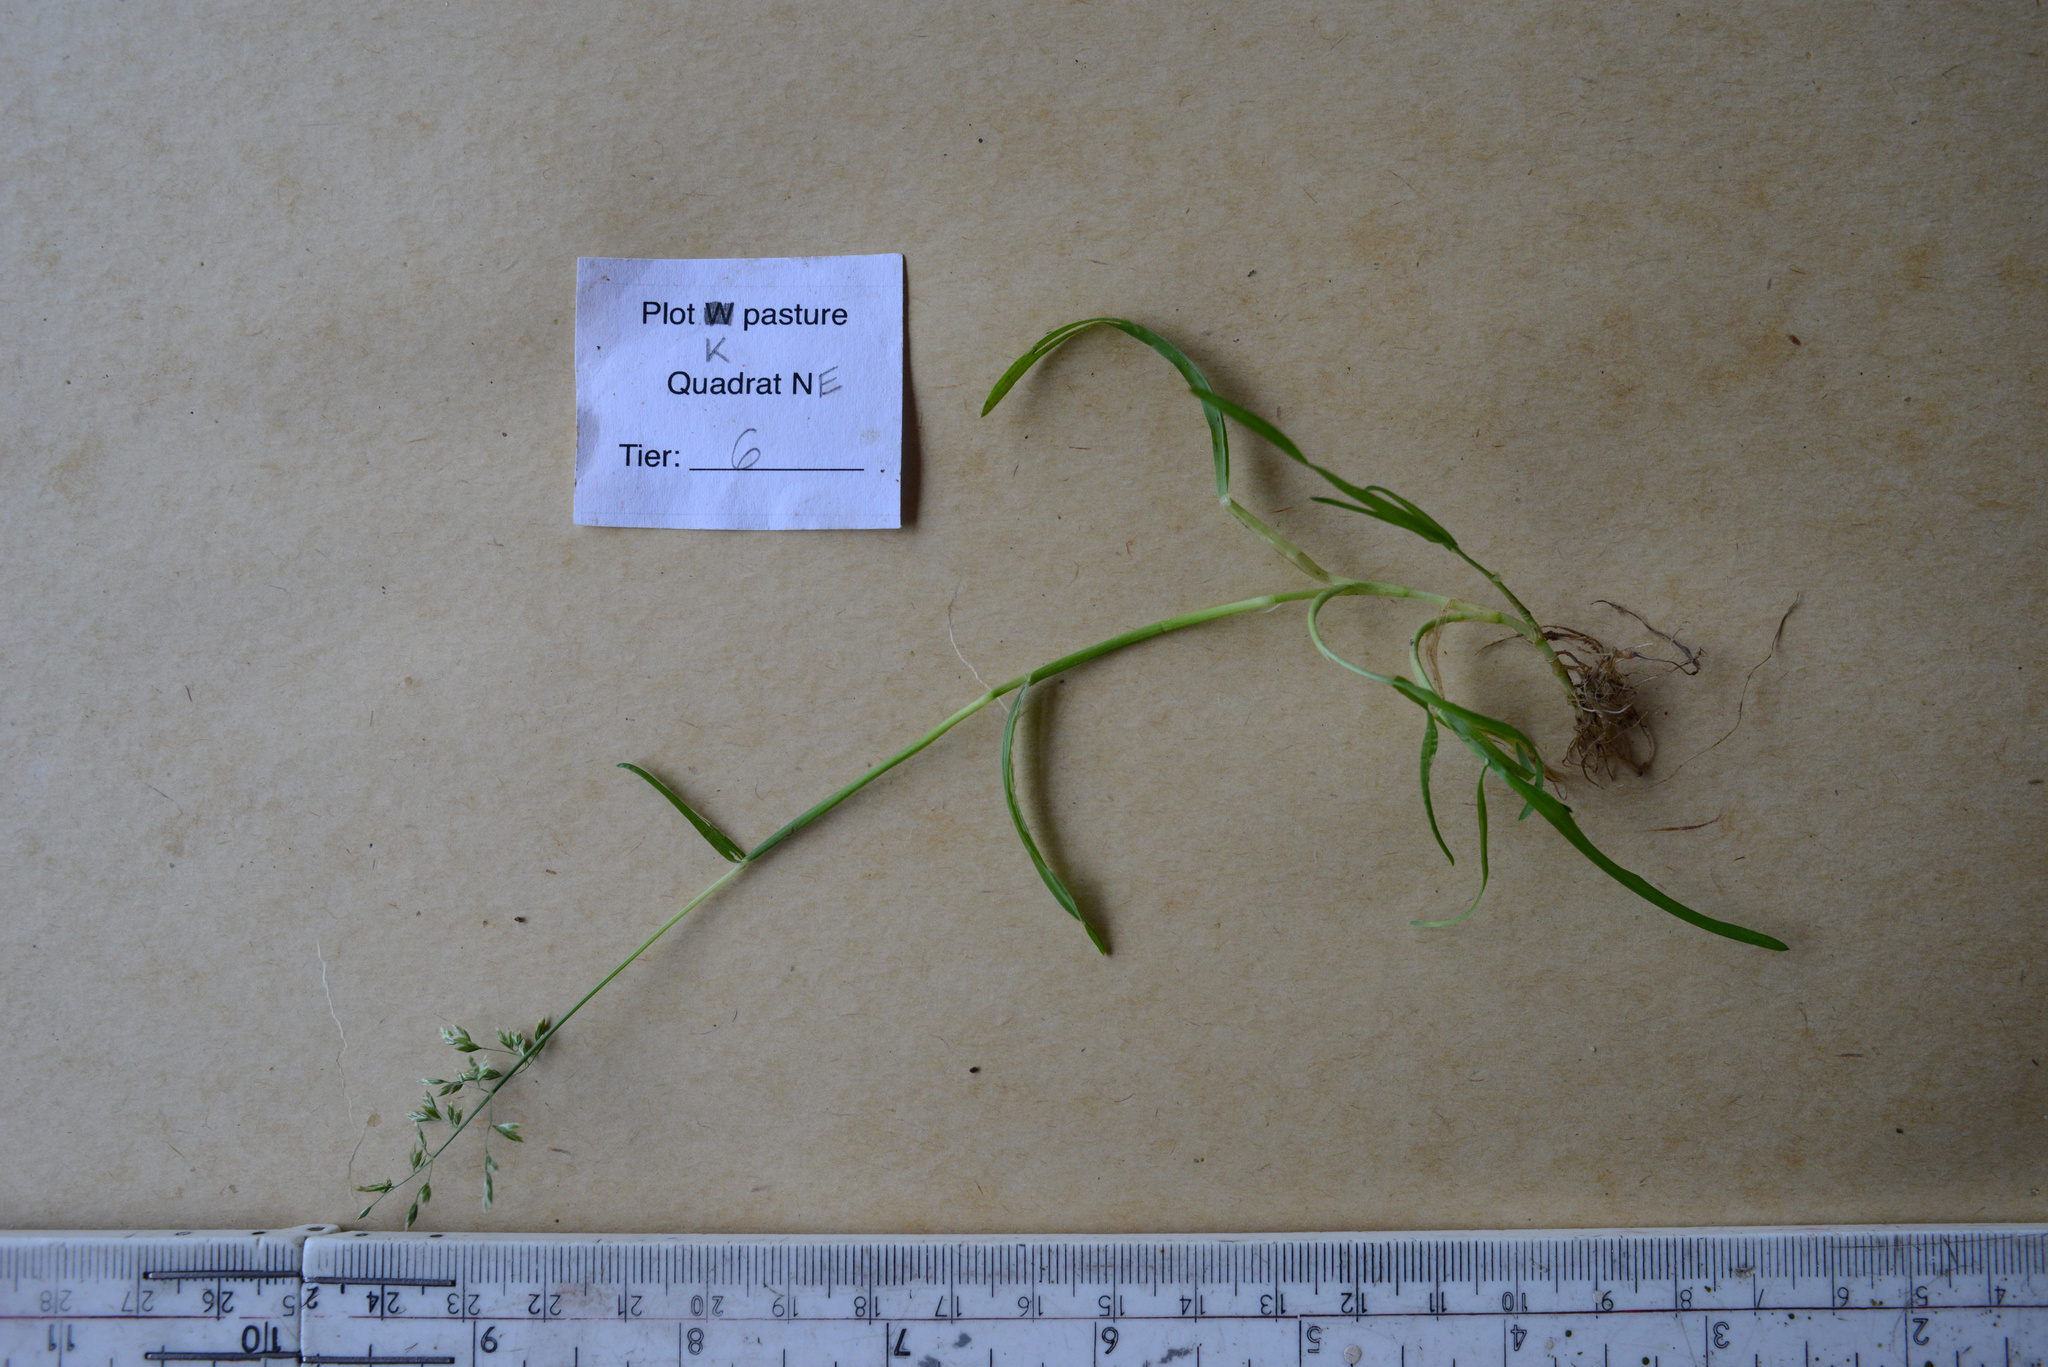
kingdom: Plantae
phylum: Tracheophyta
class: Liliopsida
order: Poales
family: Poaceae
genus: Poa
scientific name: Poa annua
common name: Annual bluegrass
